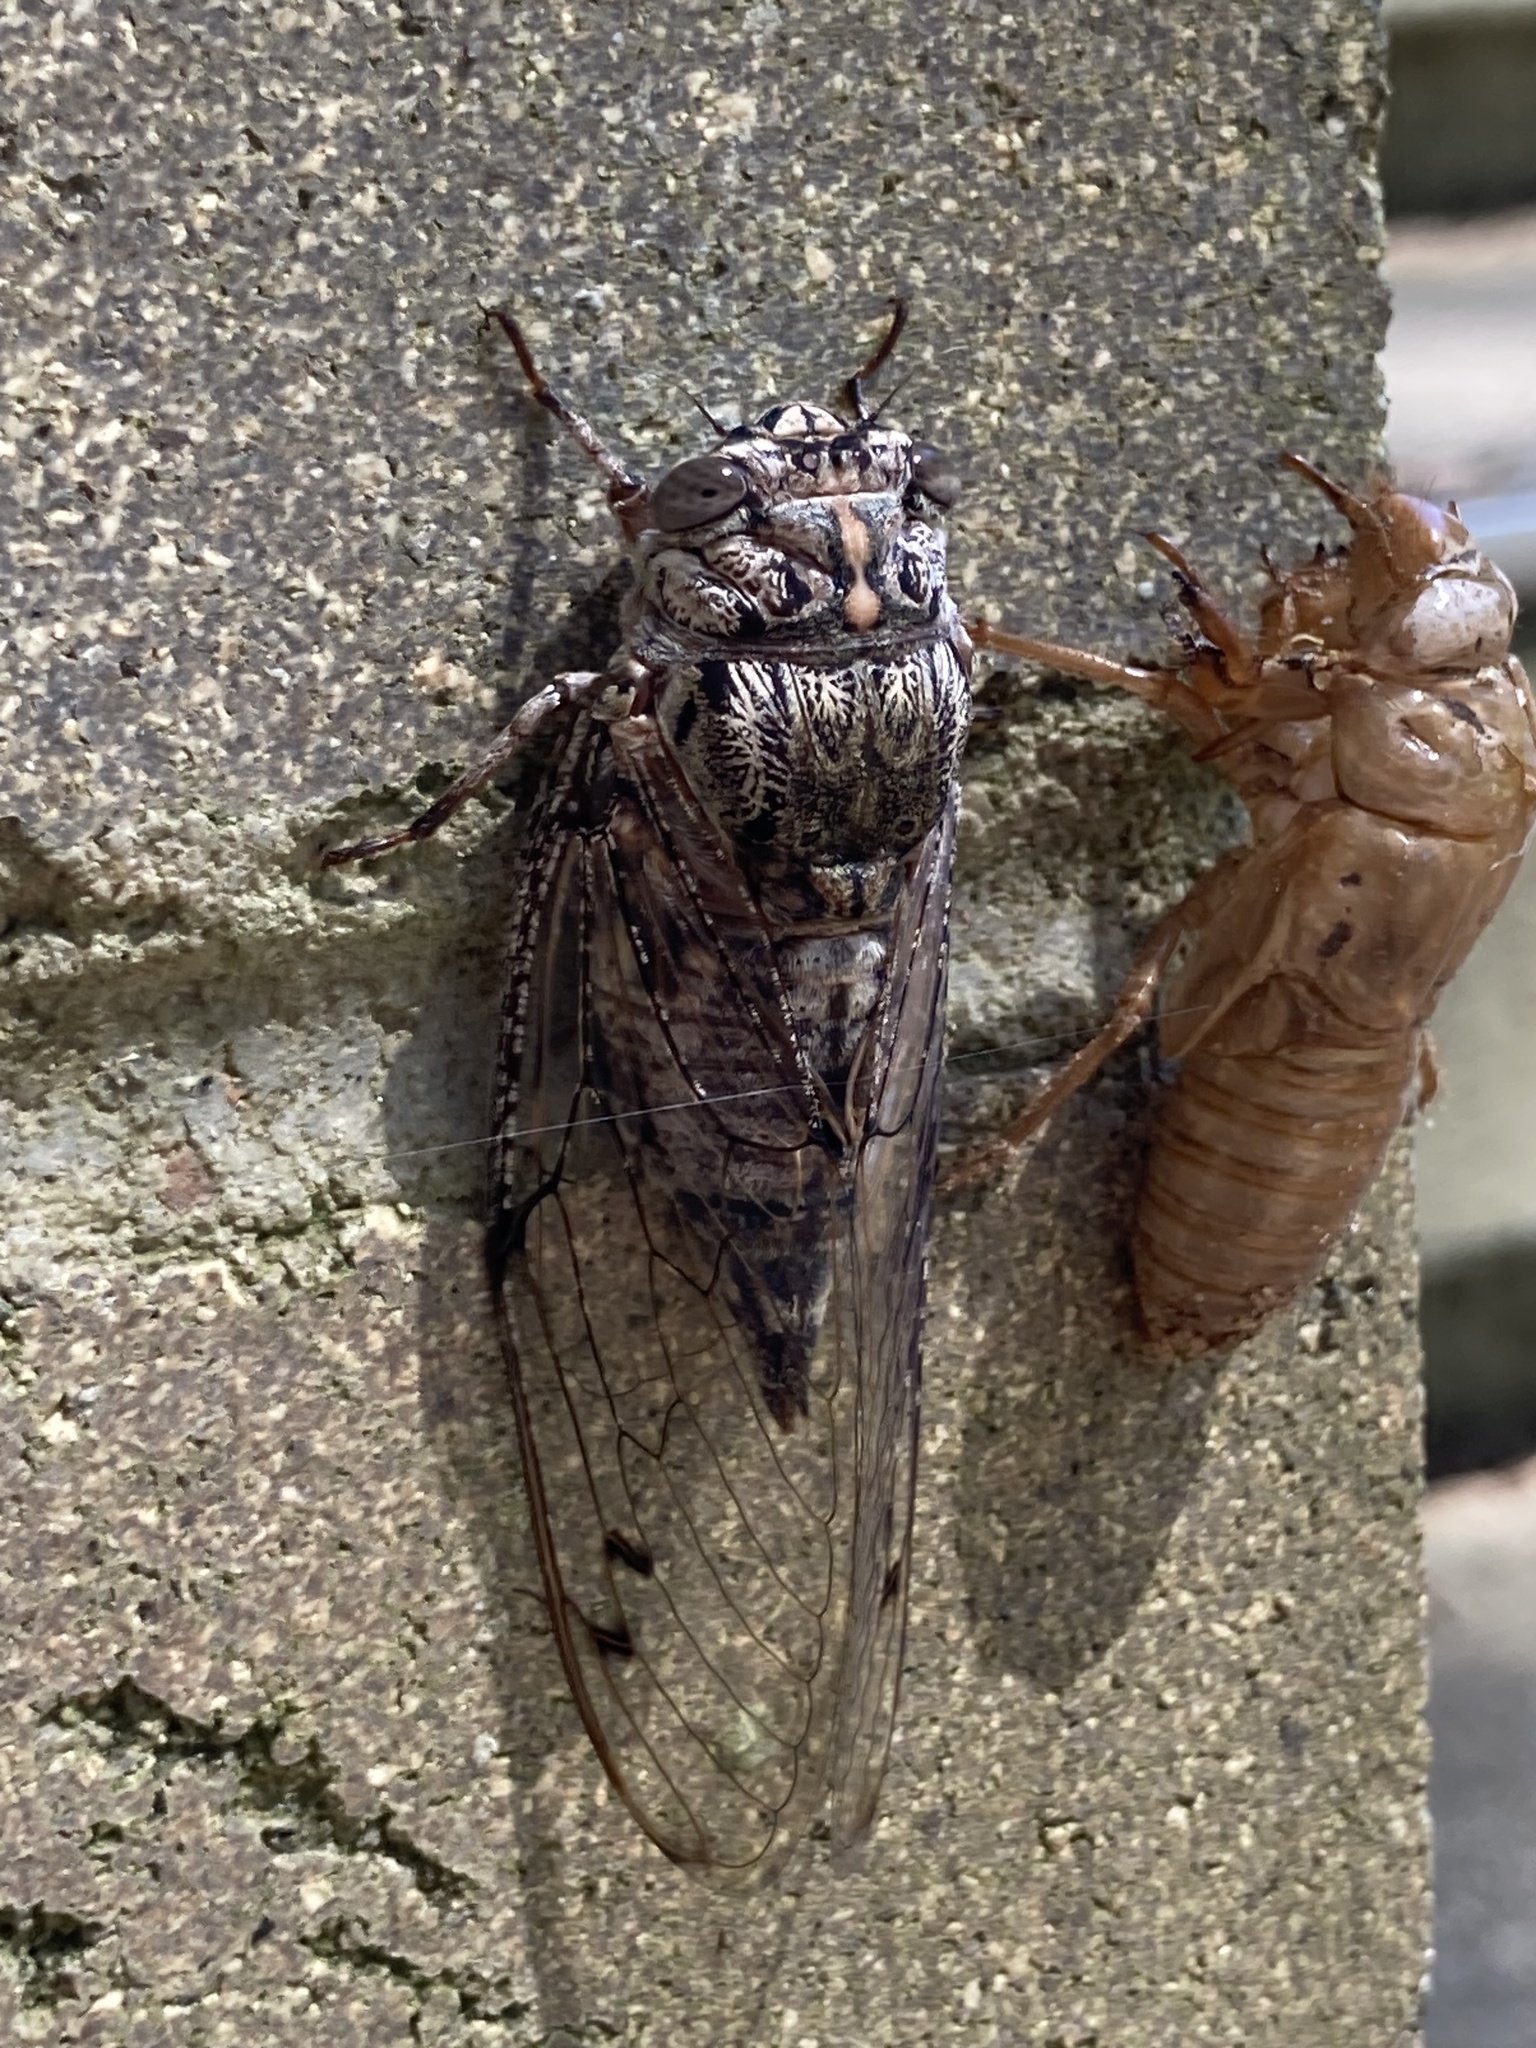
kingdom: Animalia
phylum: Arthropoda
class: Insecta
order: Hemiptera
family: Cicadidae
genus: Aleeta
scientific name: Aleeta curvicosta
